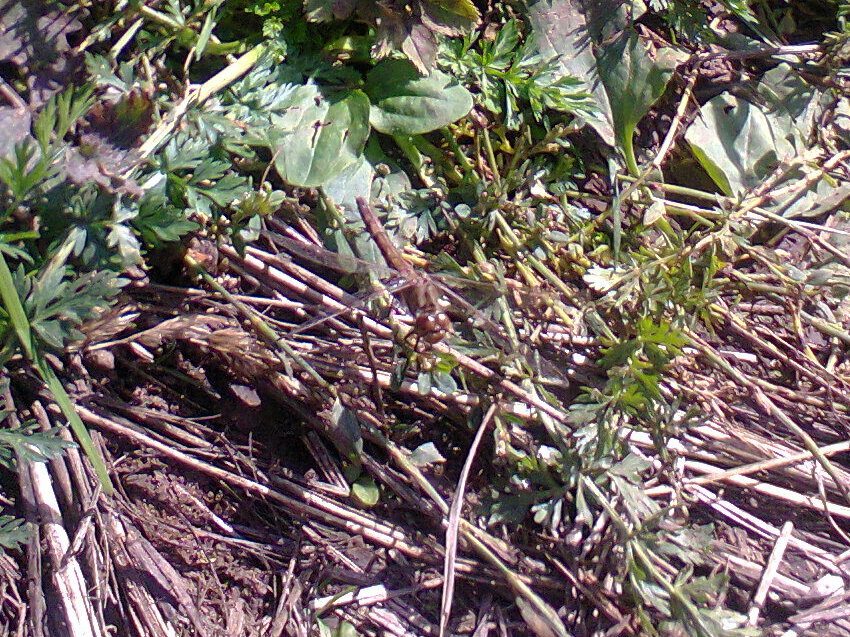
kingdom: Animalia
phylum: Arthropoda
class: Insecta
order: Odonata
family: Libellulidae
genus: Sympetrum
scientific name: Sympetrum vulgatum
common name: Vagrant darter
